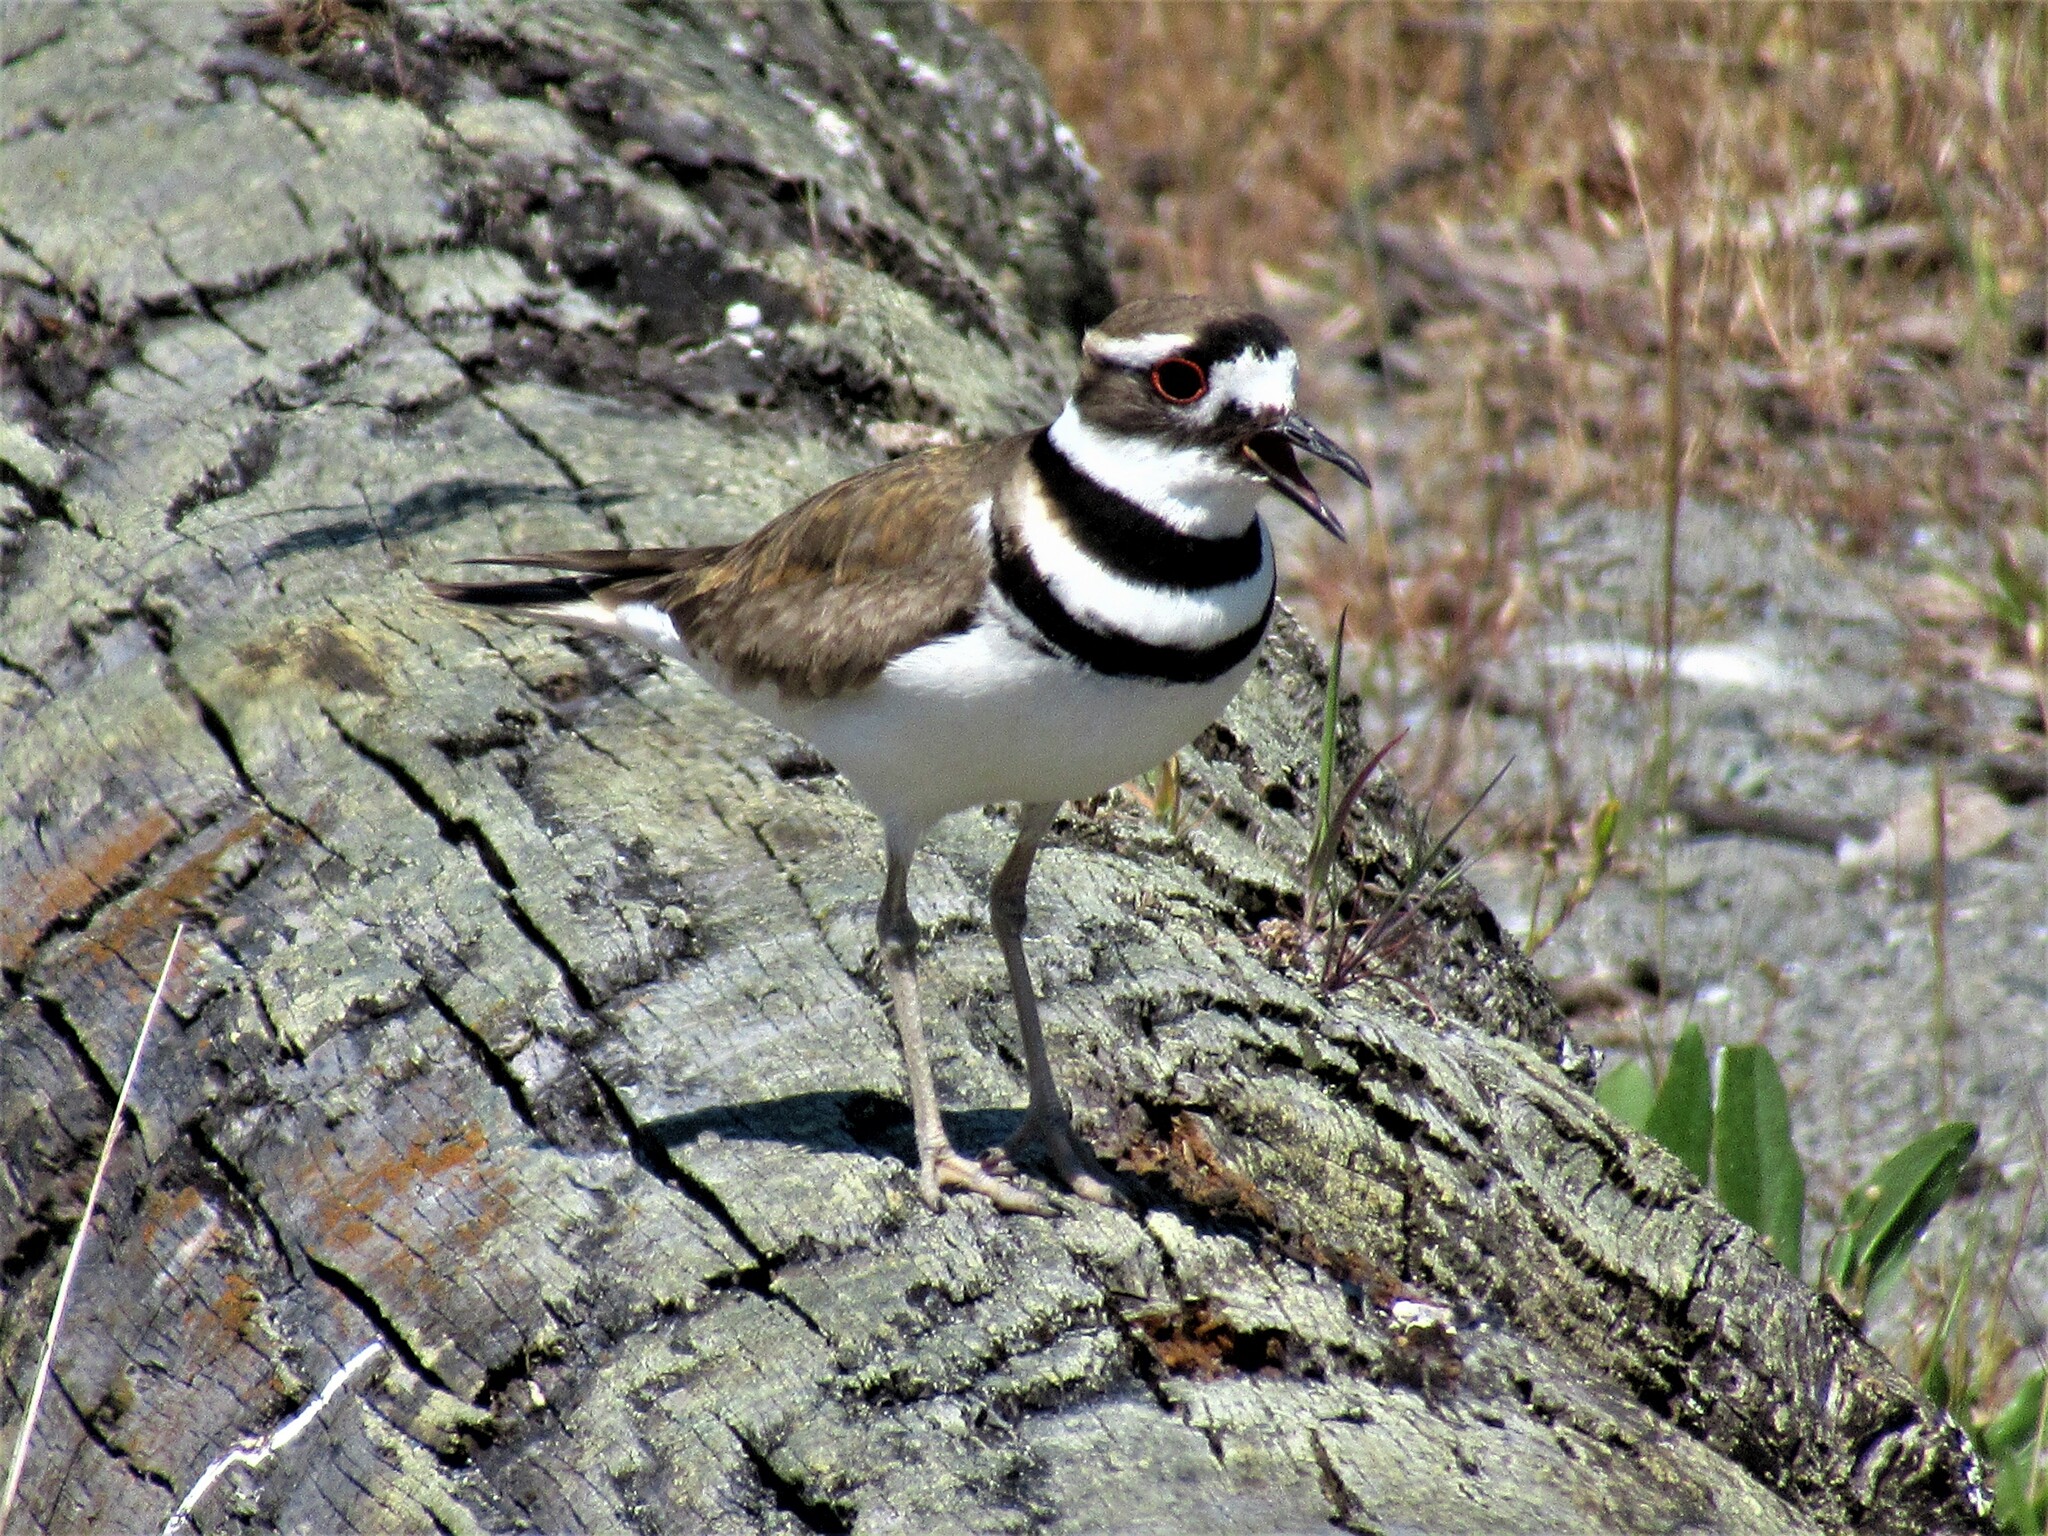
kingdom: Animalia
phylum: Chordata
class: Aves
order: Charadriiformes
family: Charadriidae
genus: Charadrius
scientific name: Charadrius vociferus
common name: Killdeer
